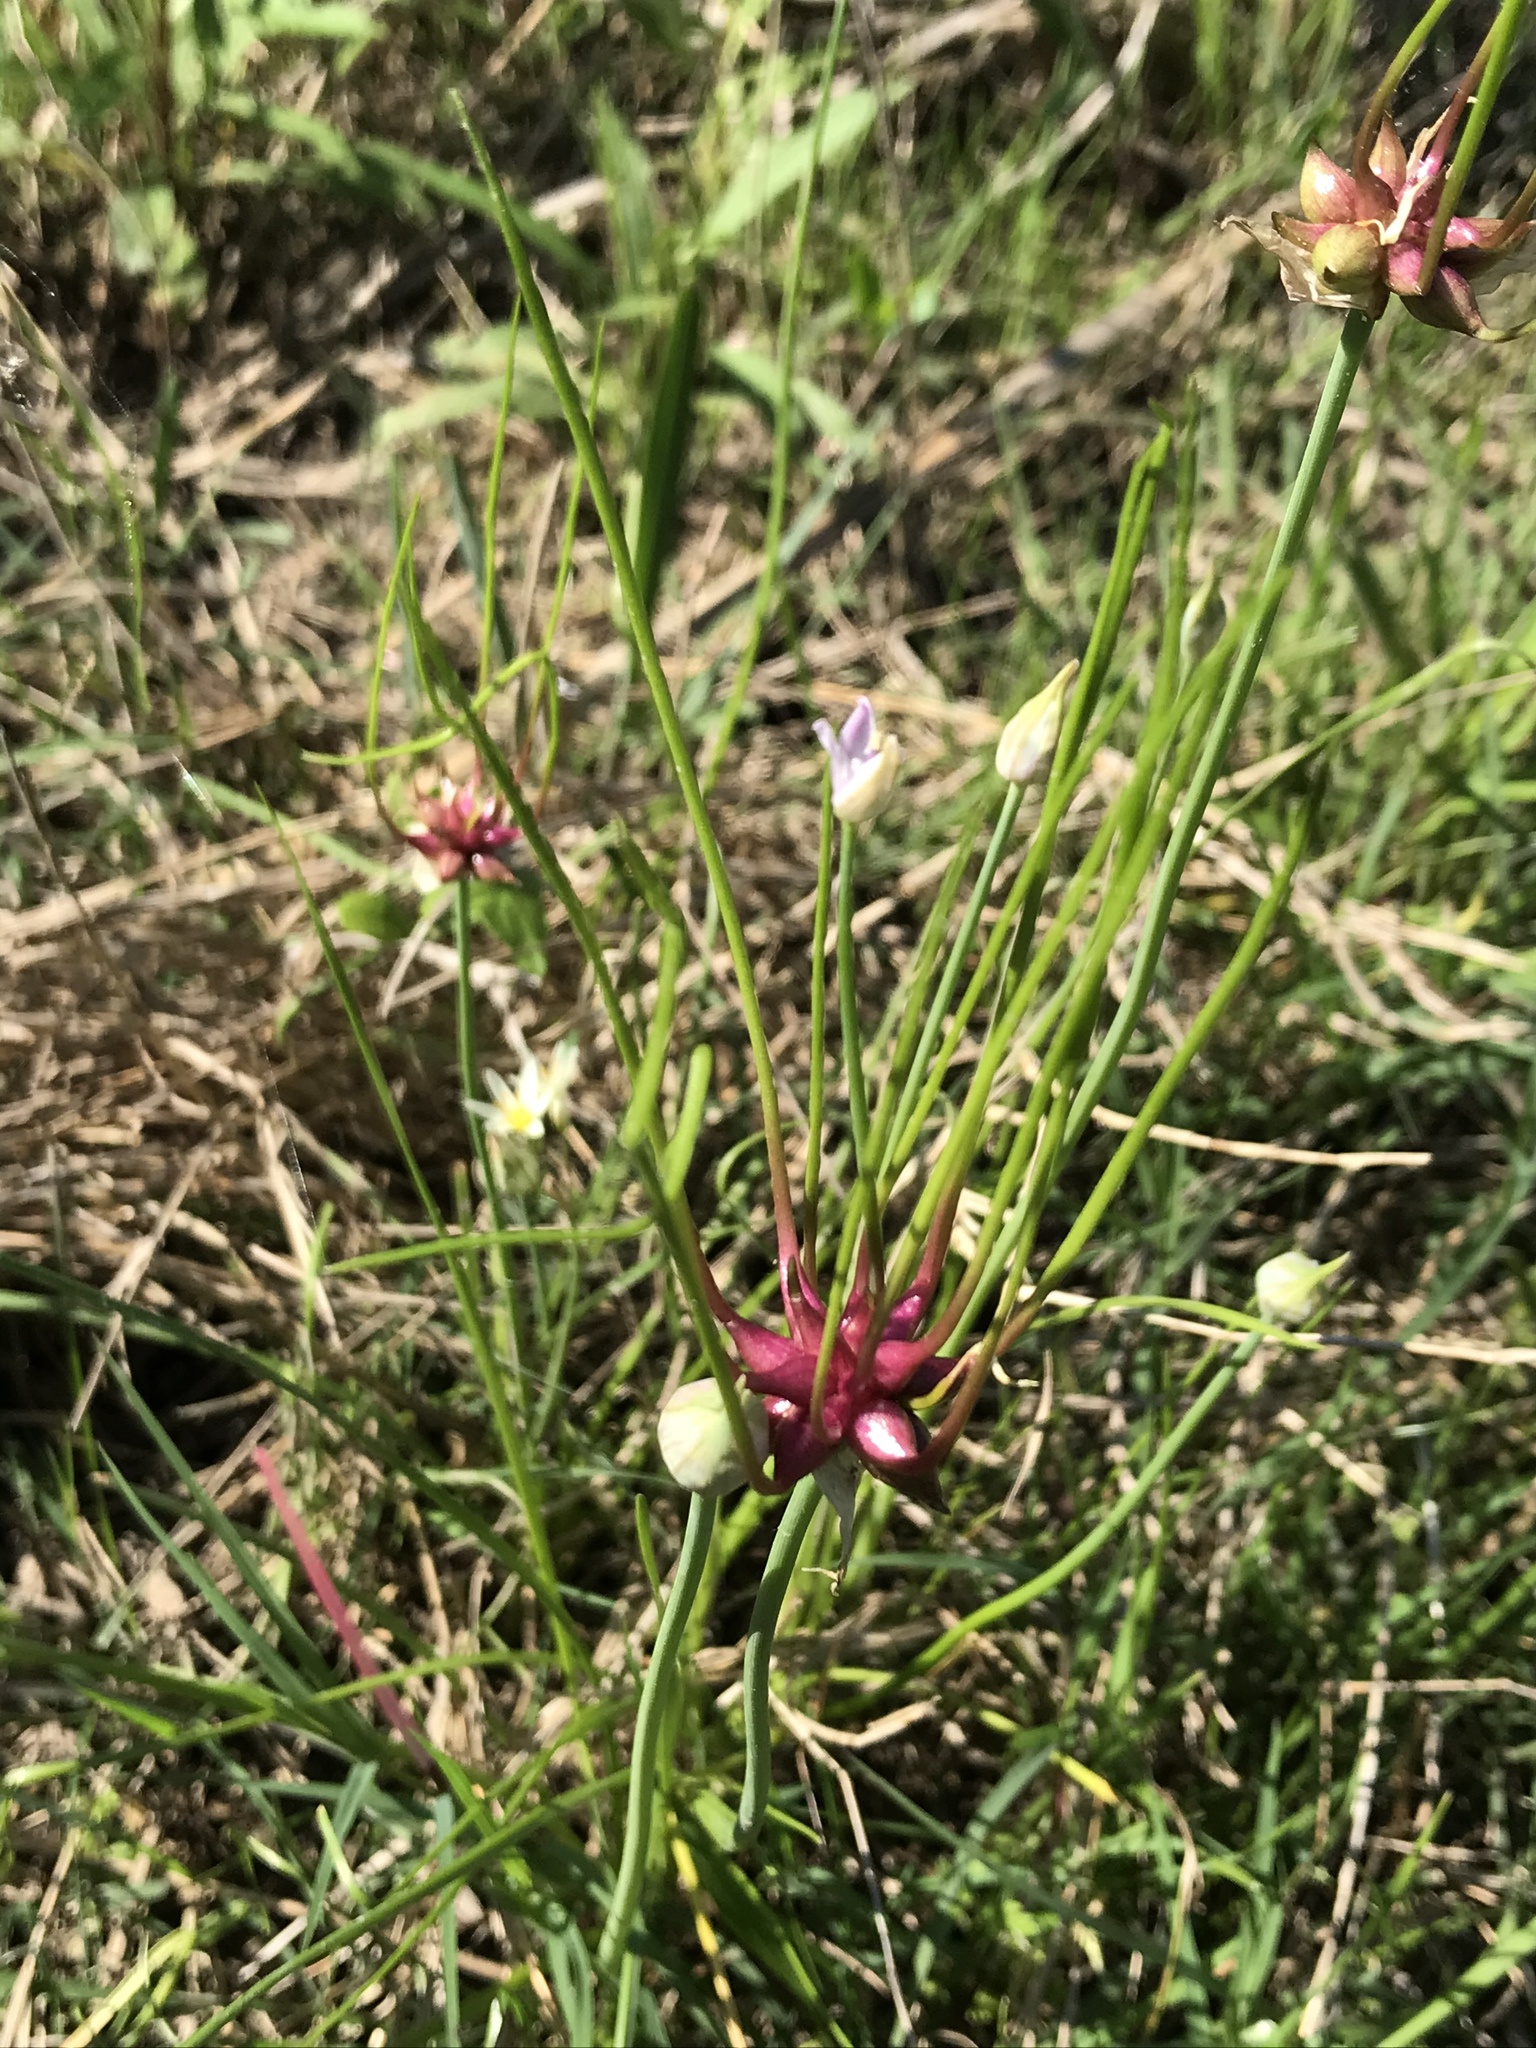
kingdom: Plantae
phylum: Tracheophyta
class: Liliopsida
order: Asparagales
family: Amaryllidaceae
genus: Allium
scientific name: Allium canadense
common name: Meadow garlic
